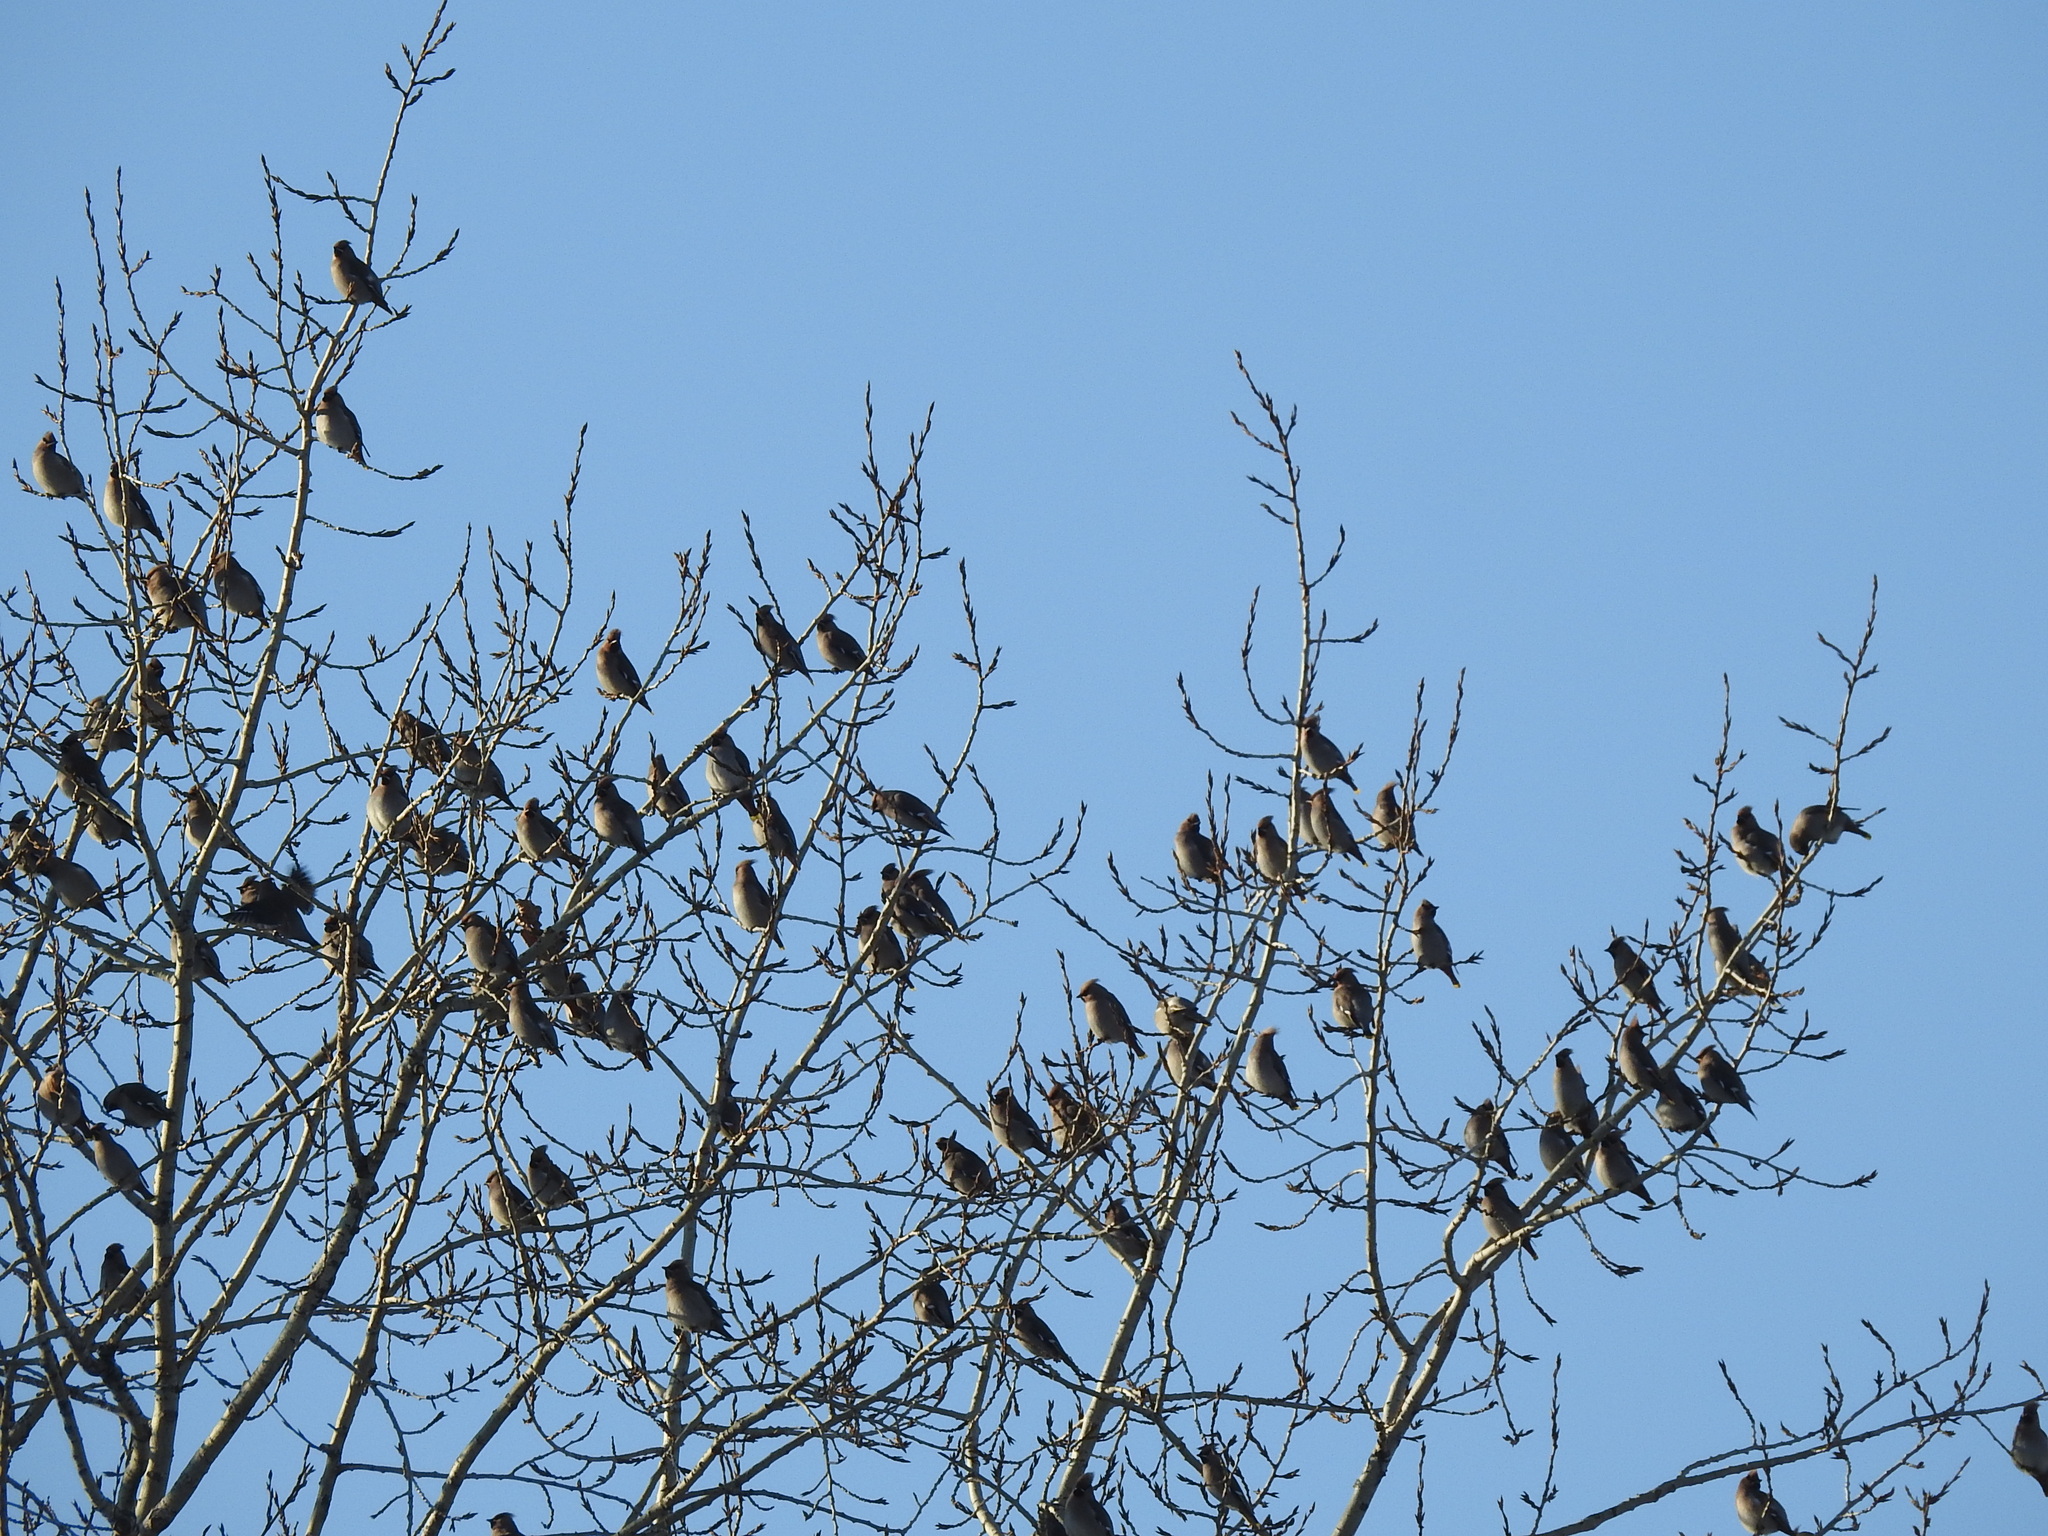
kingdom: Animalia
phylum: Chordata
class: Aves
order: Passeriformes
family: Bombycillidae
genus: Bombycilla
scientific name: Bombycilla garrulus
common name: Bohemian waxwing
